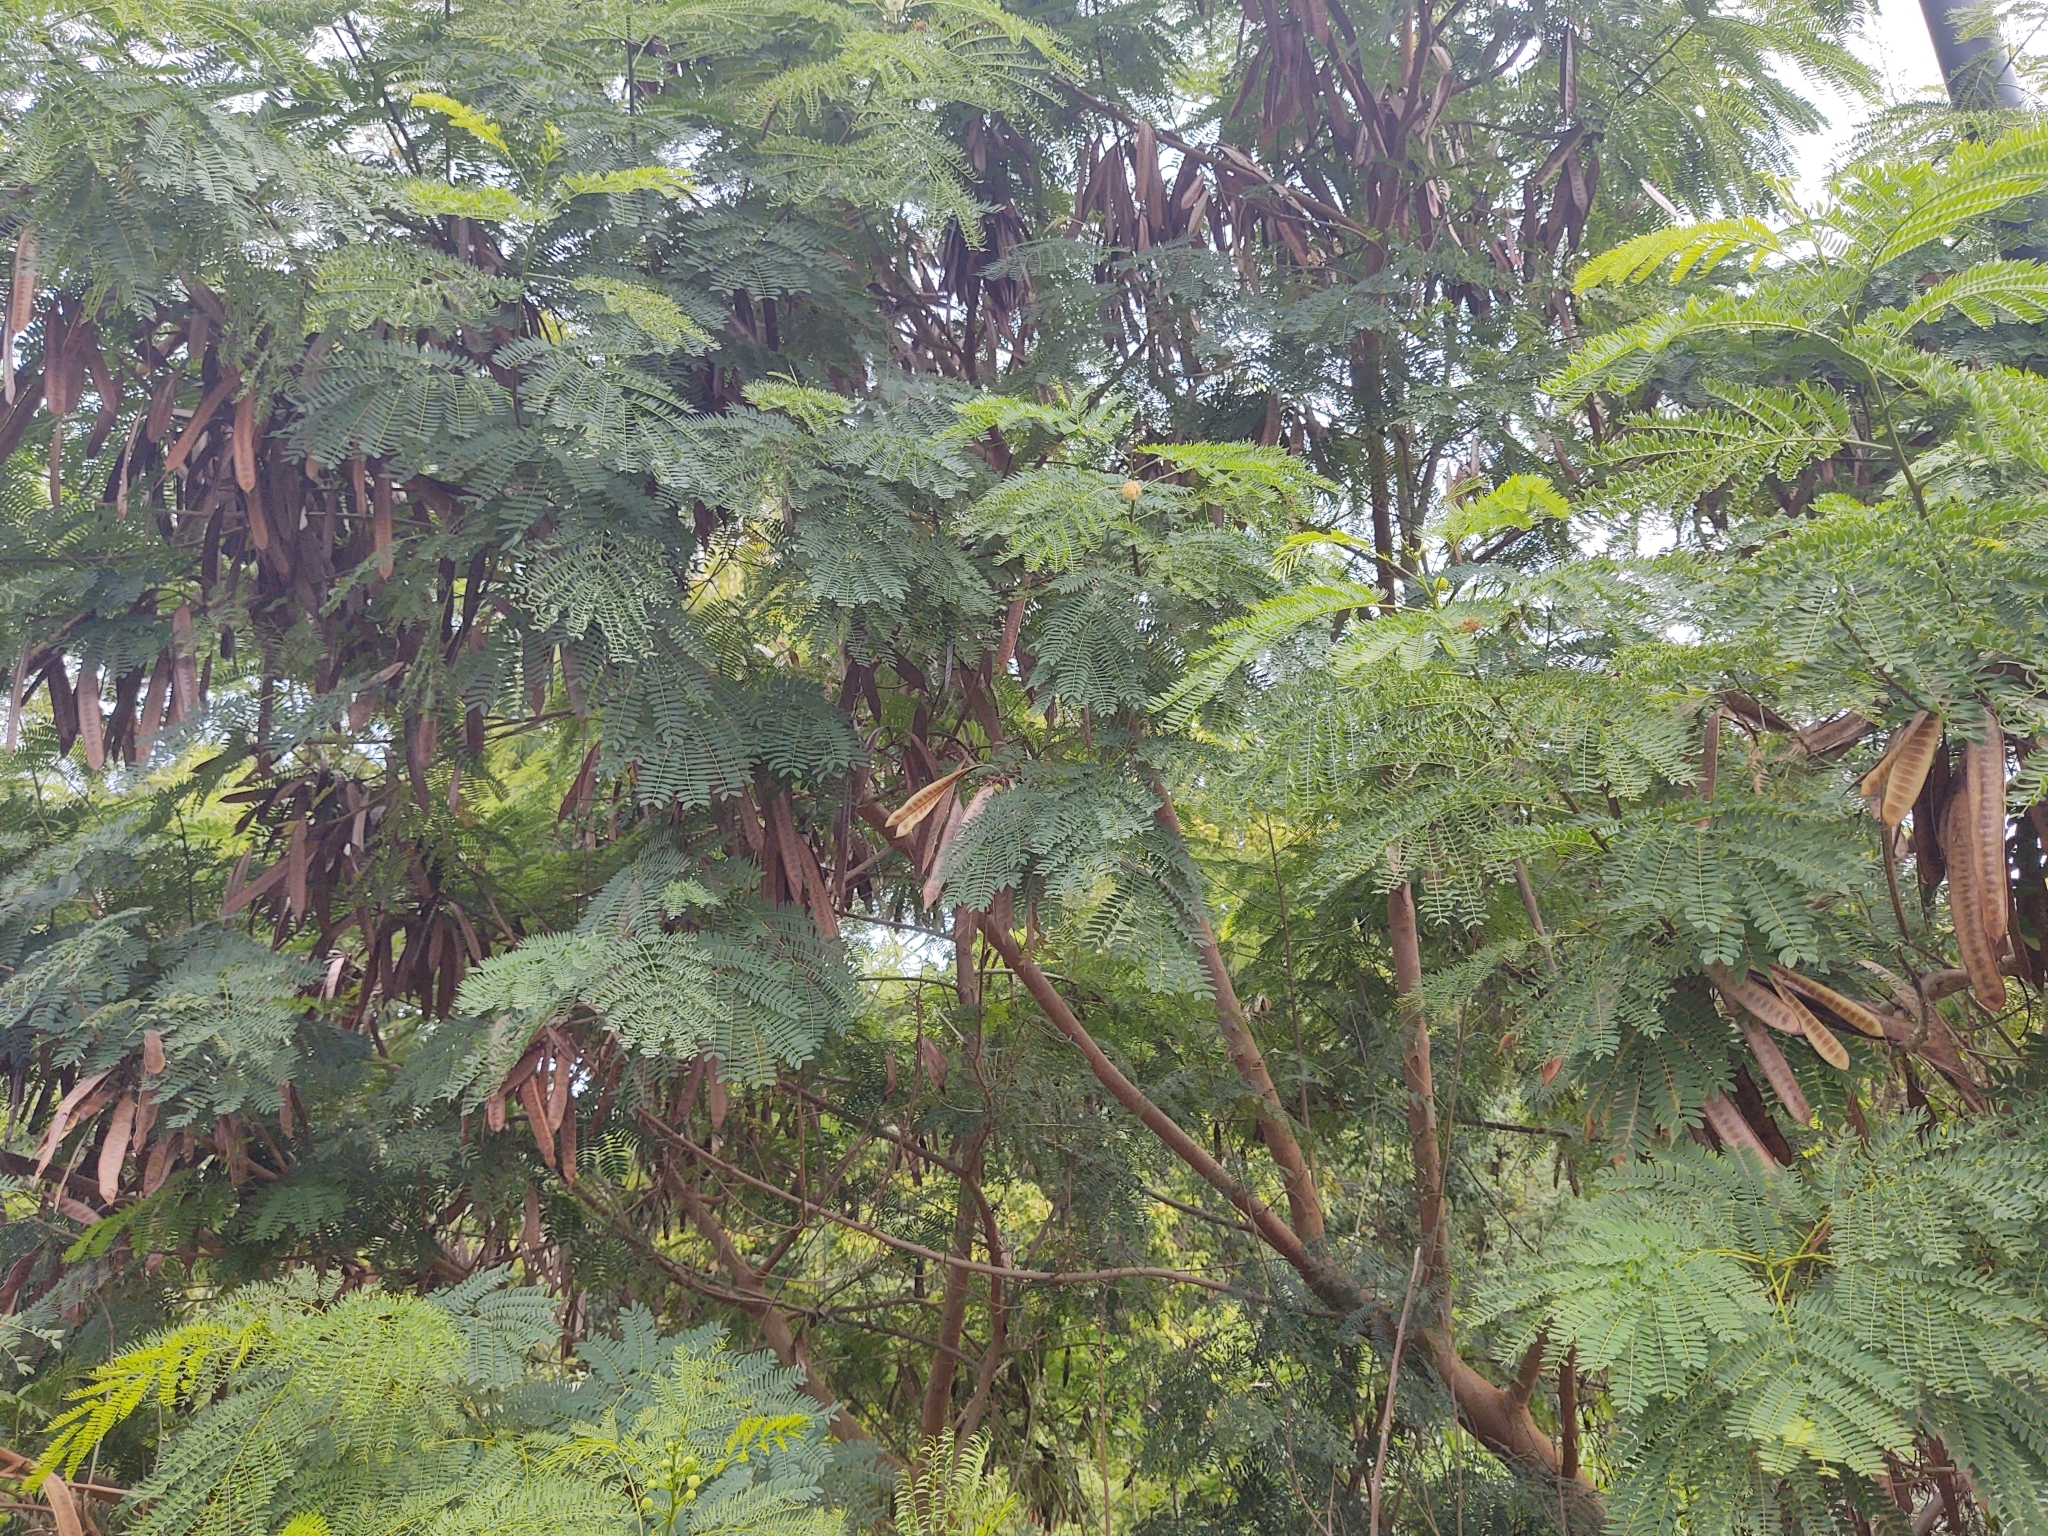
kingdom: Plantae
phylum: Tracheophyta
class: Magnoliopsida
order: Fabales
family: Fabaceae
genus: Leucaena
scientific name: Leucaena leucocephala
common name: White leadtree
